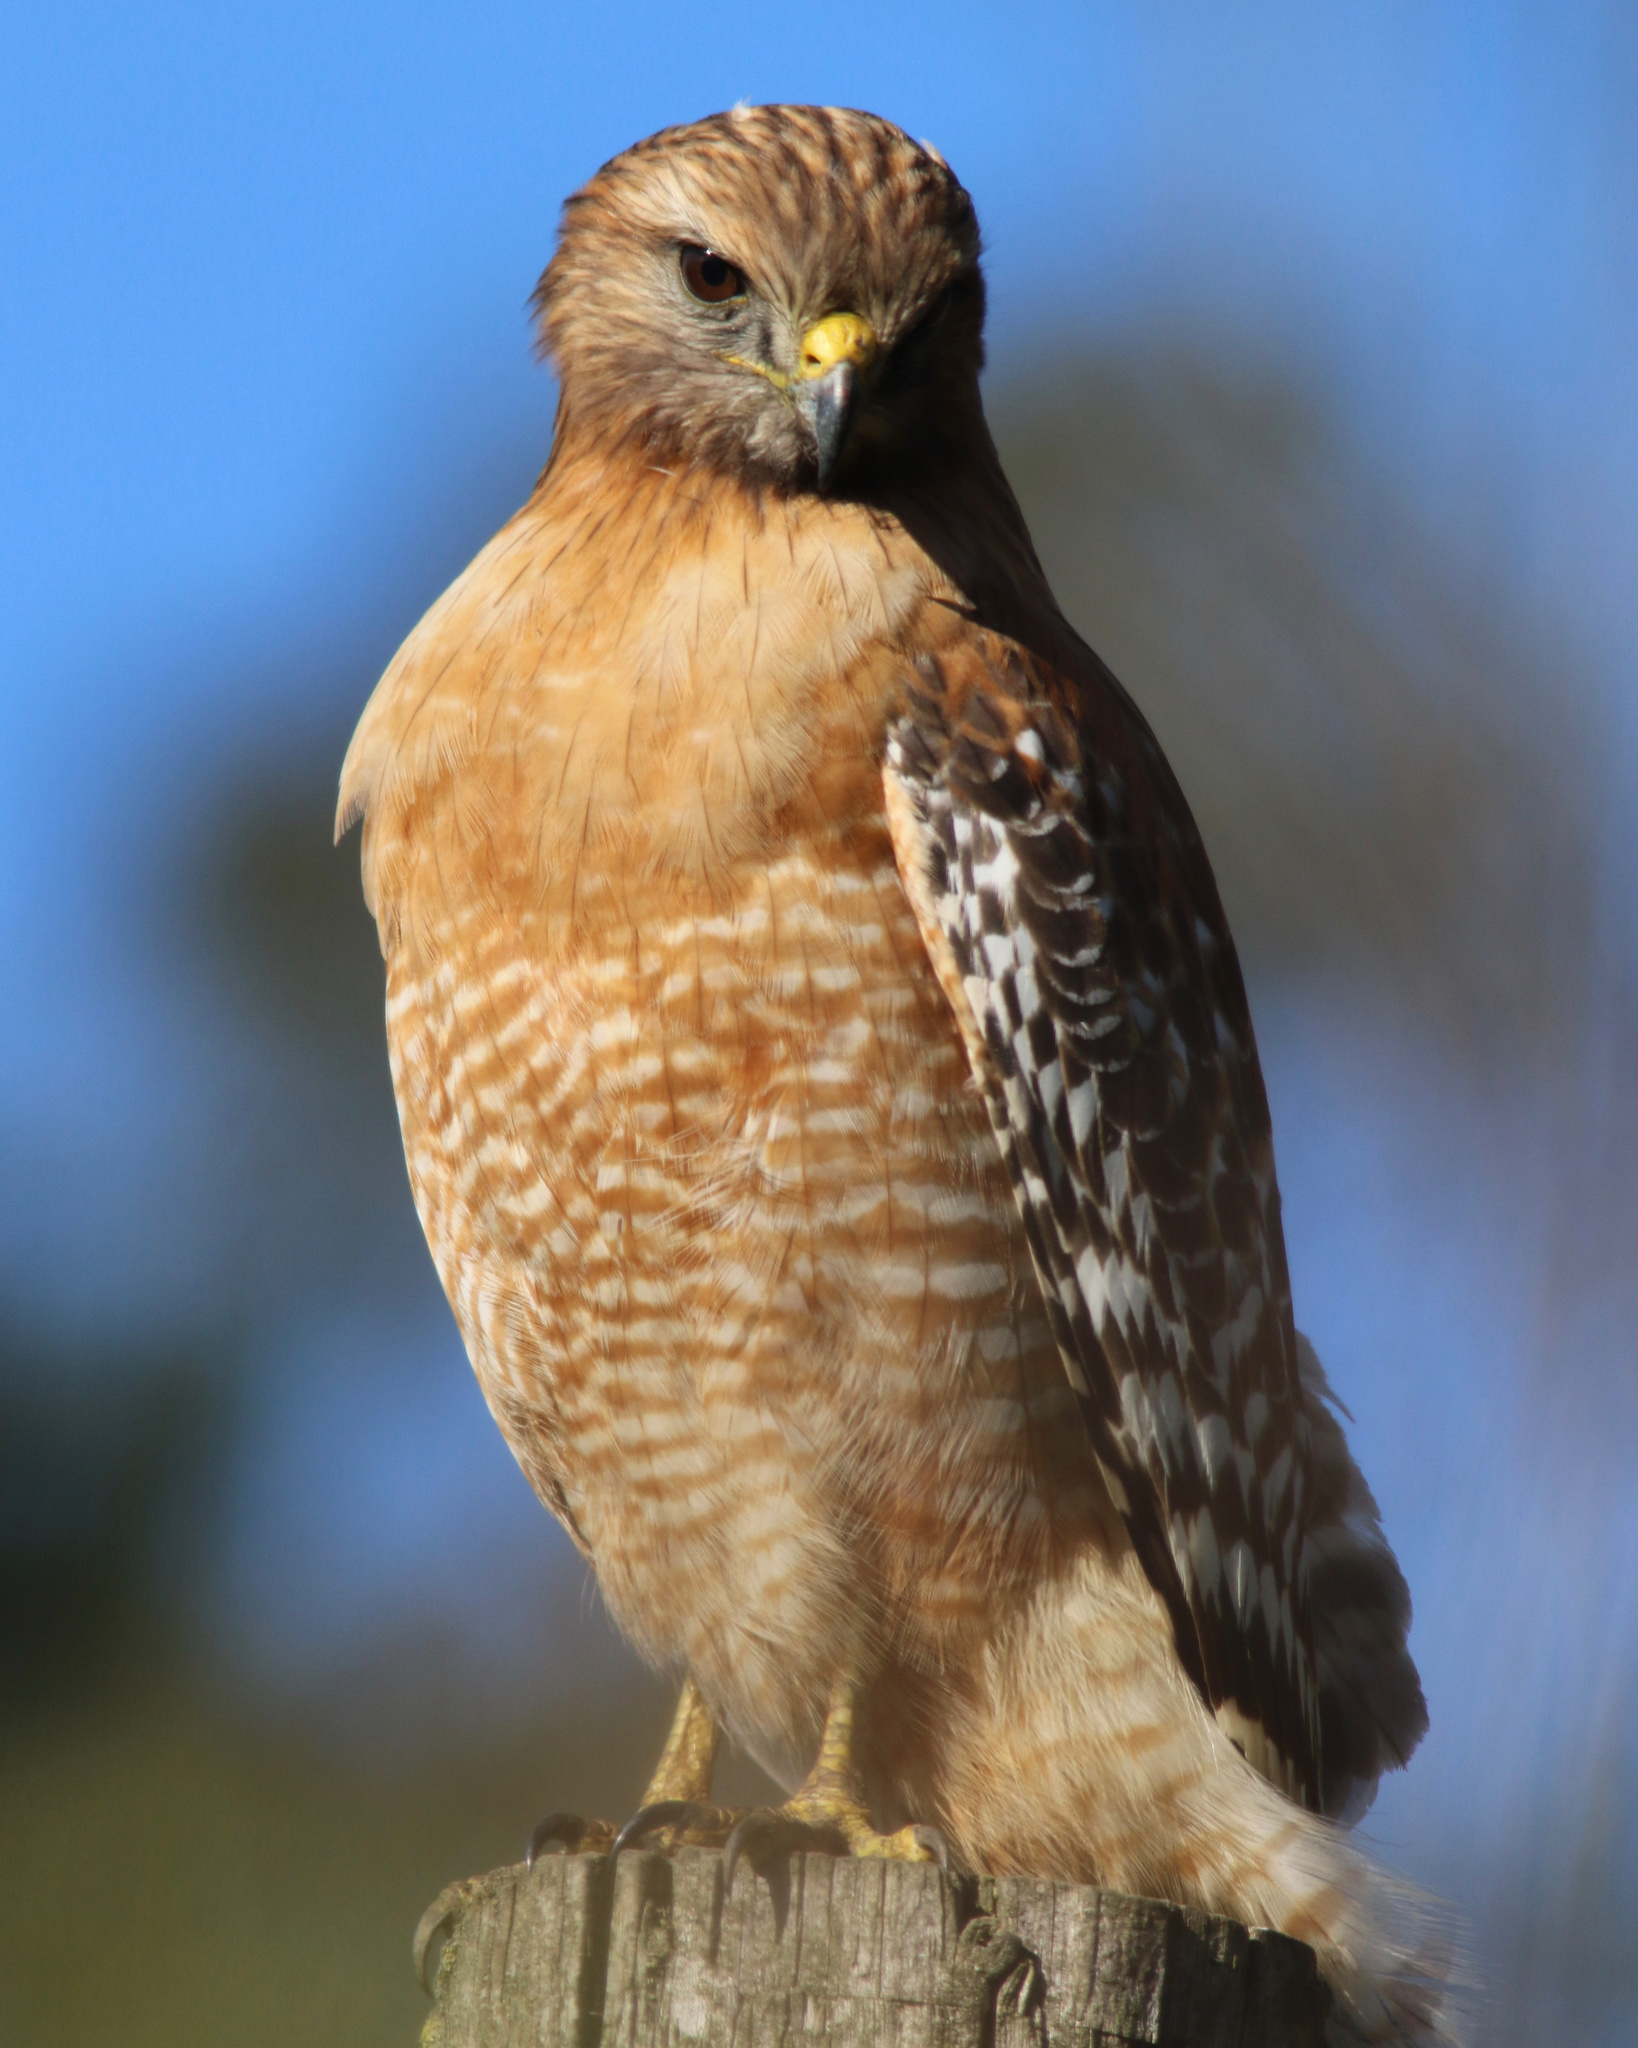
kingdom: Animalia
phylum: Chordata
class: Aves
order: Accipitriformes
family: Accipitridae
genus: Buteo
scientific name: Buteo lineatus
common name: Red-shouldered hawk
